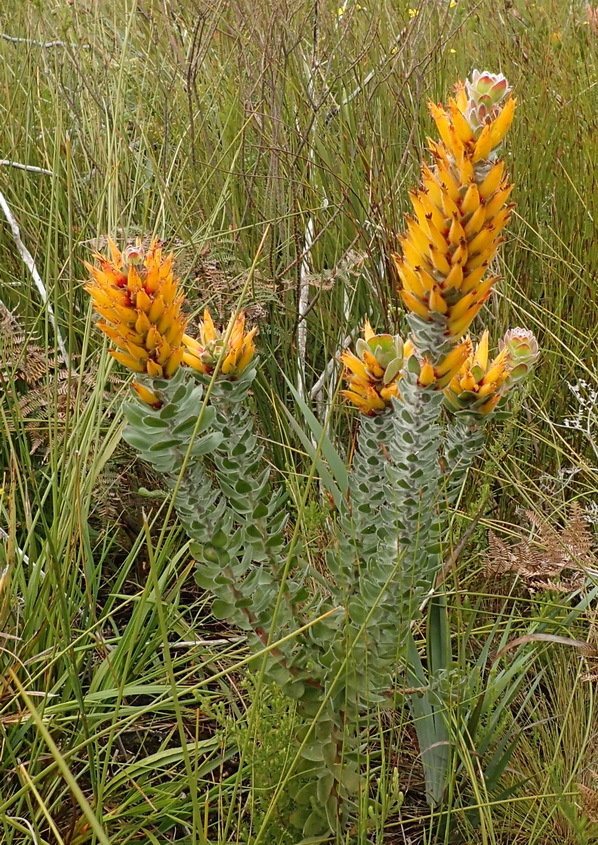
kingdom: Plantae
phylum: Tracheophyta
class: Magnoliopsida
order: Proteales
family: Proteaceae
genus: Mimetes
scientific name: Mimetes pauciflora
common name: Three-flowered pagoda
